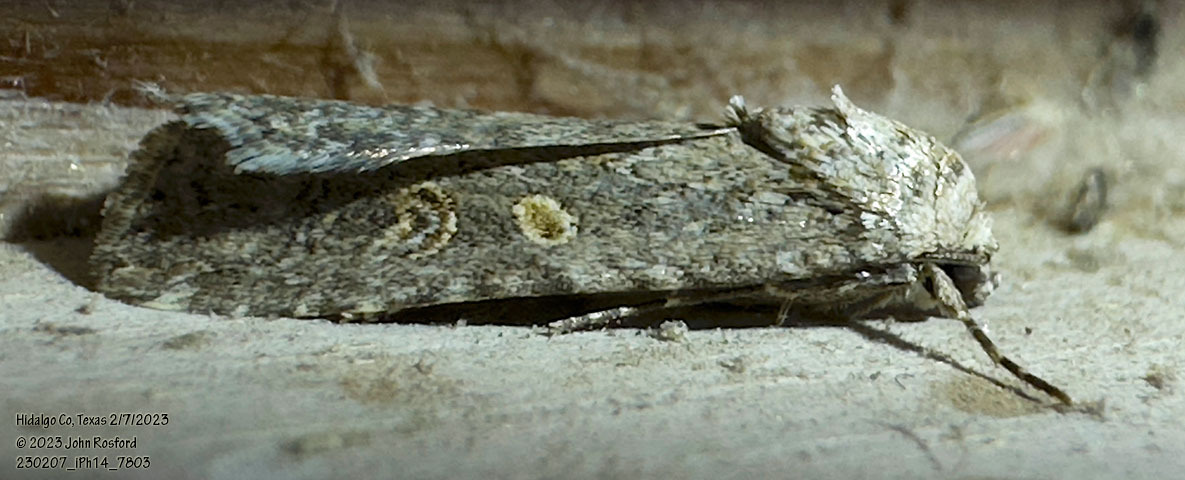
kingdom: Animalia
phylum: Arthropoda
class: Insecta
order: Lepidoptera
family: Noctuidae
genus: Spodoptera
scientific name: Spodoptera exigua
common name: Beet armyworm
